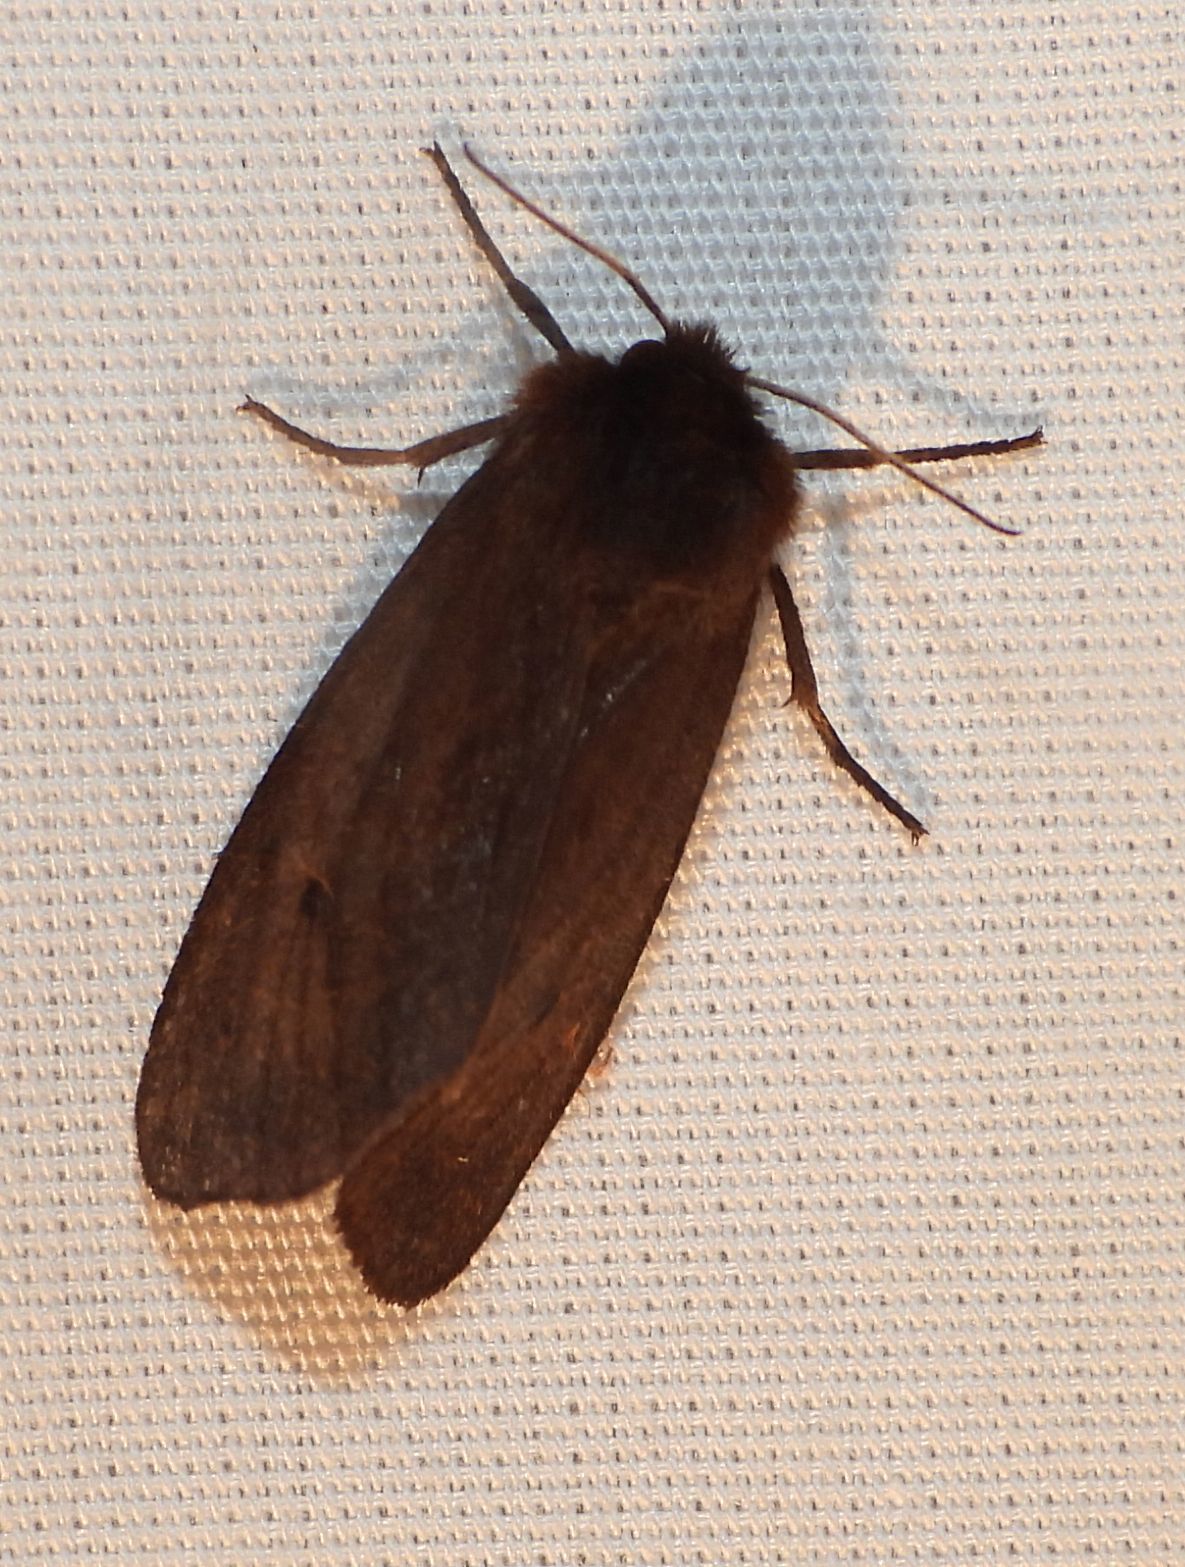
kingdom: Animalia
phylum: Arthropoda
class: Insecta
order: Lepidoptera
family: Erebidae
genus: Phragmatobia
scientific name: Phragmatobia fuliginosa
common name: Ruby tiger
